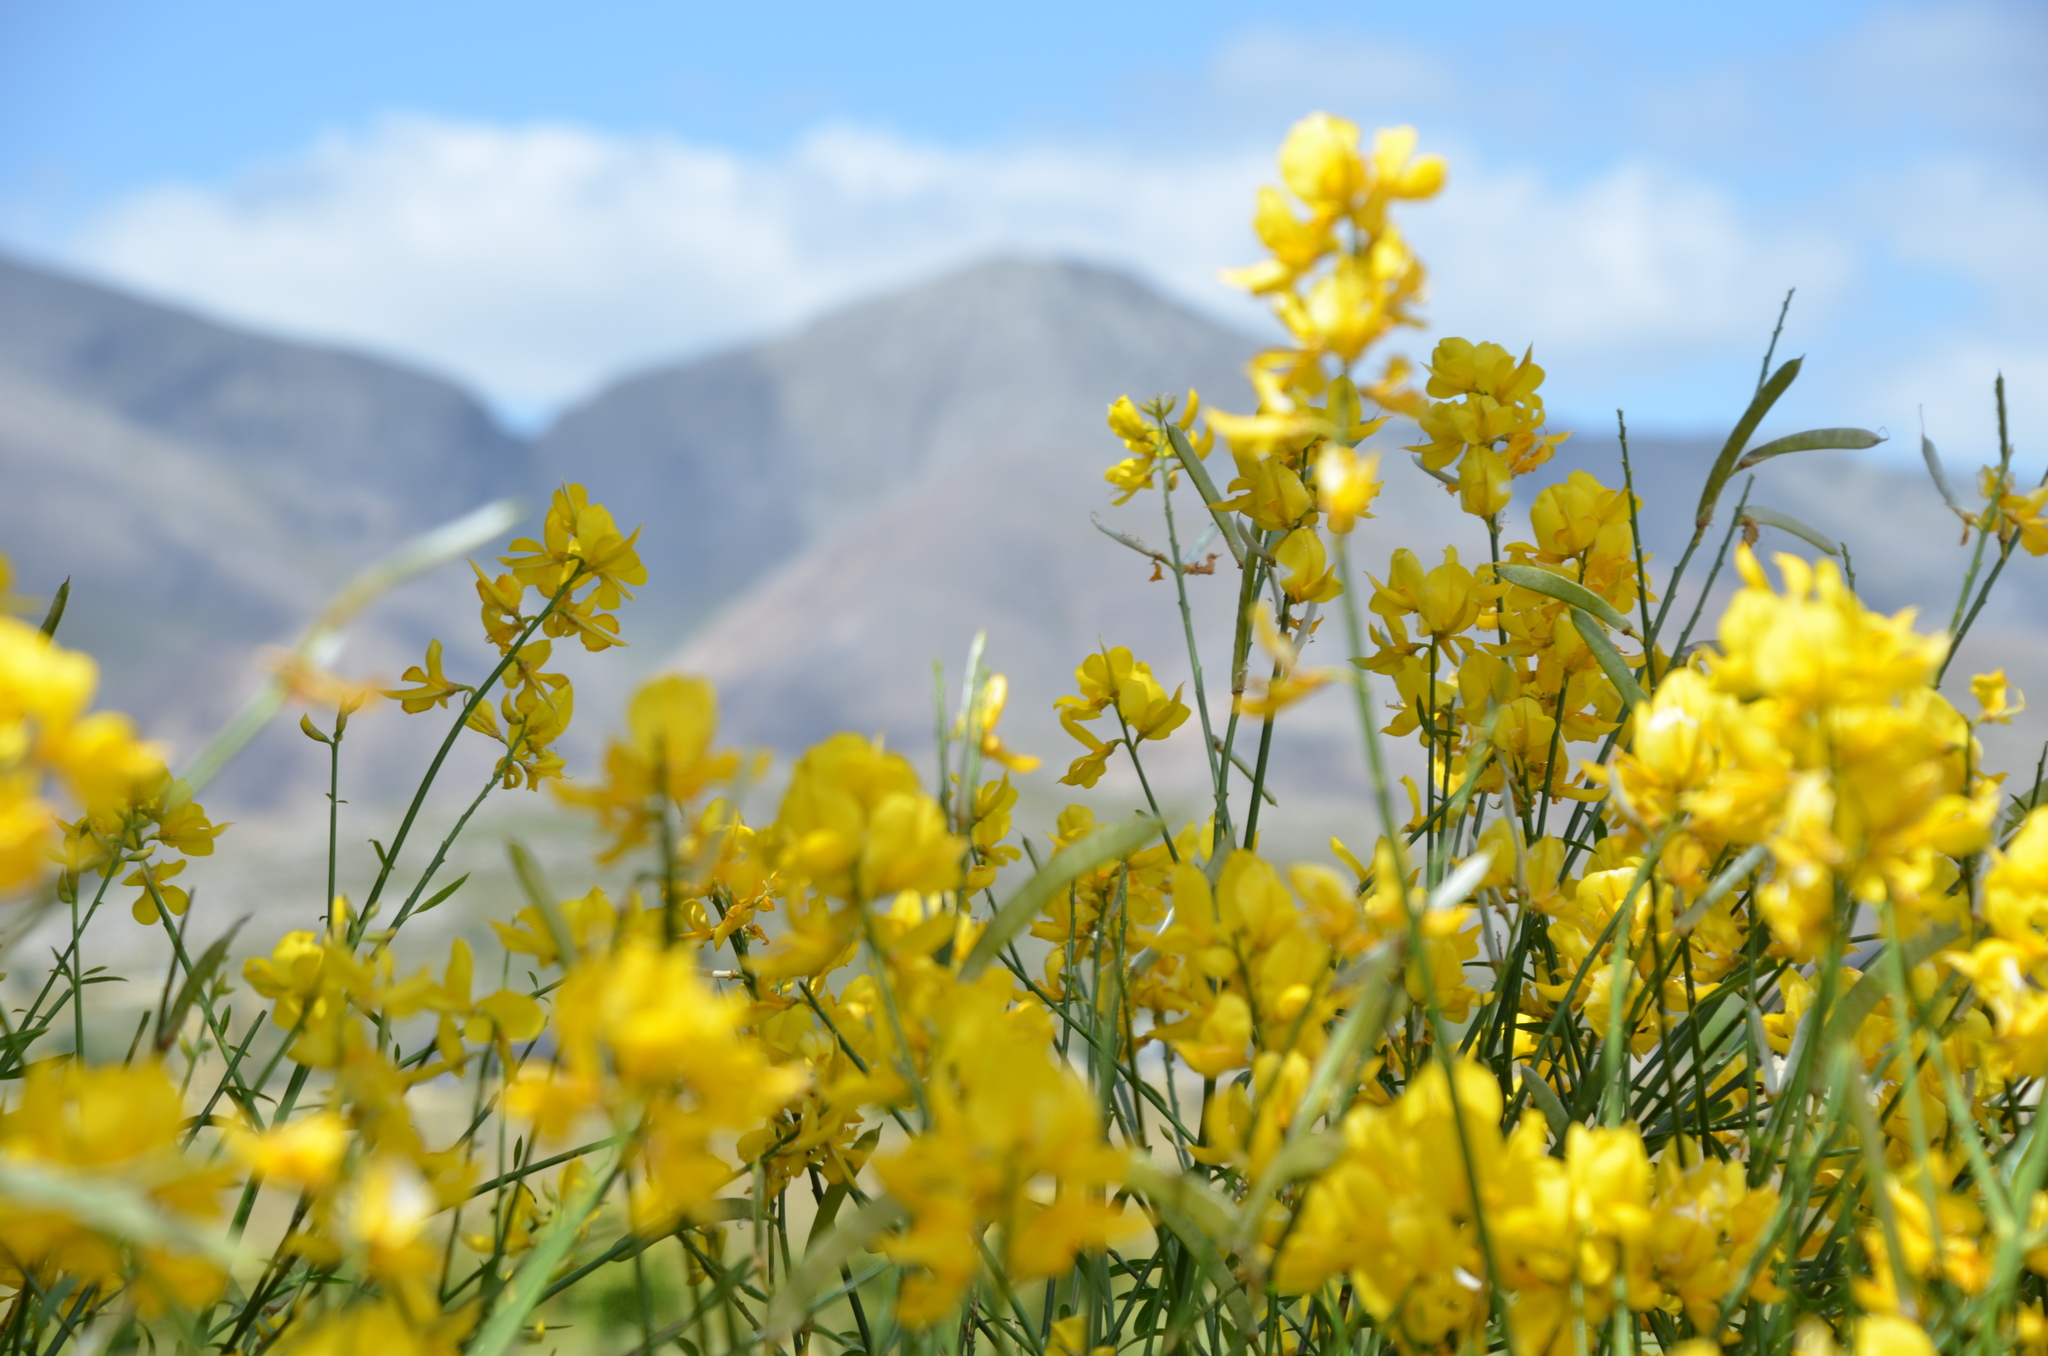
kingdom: Plantae
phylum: Tracheophyta
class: Magnoliopsida
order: Fabales
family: Fabaceae
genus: Spartium
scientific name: Spartium junceum
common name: Spanish broom
